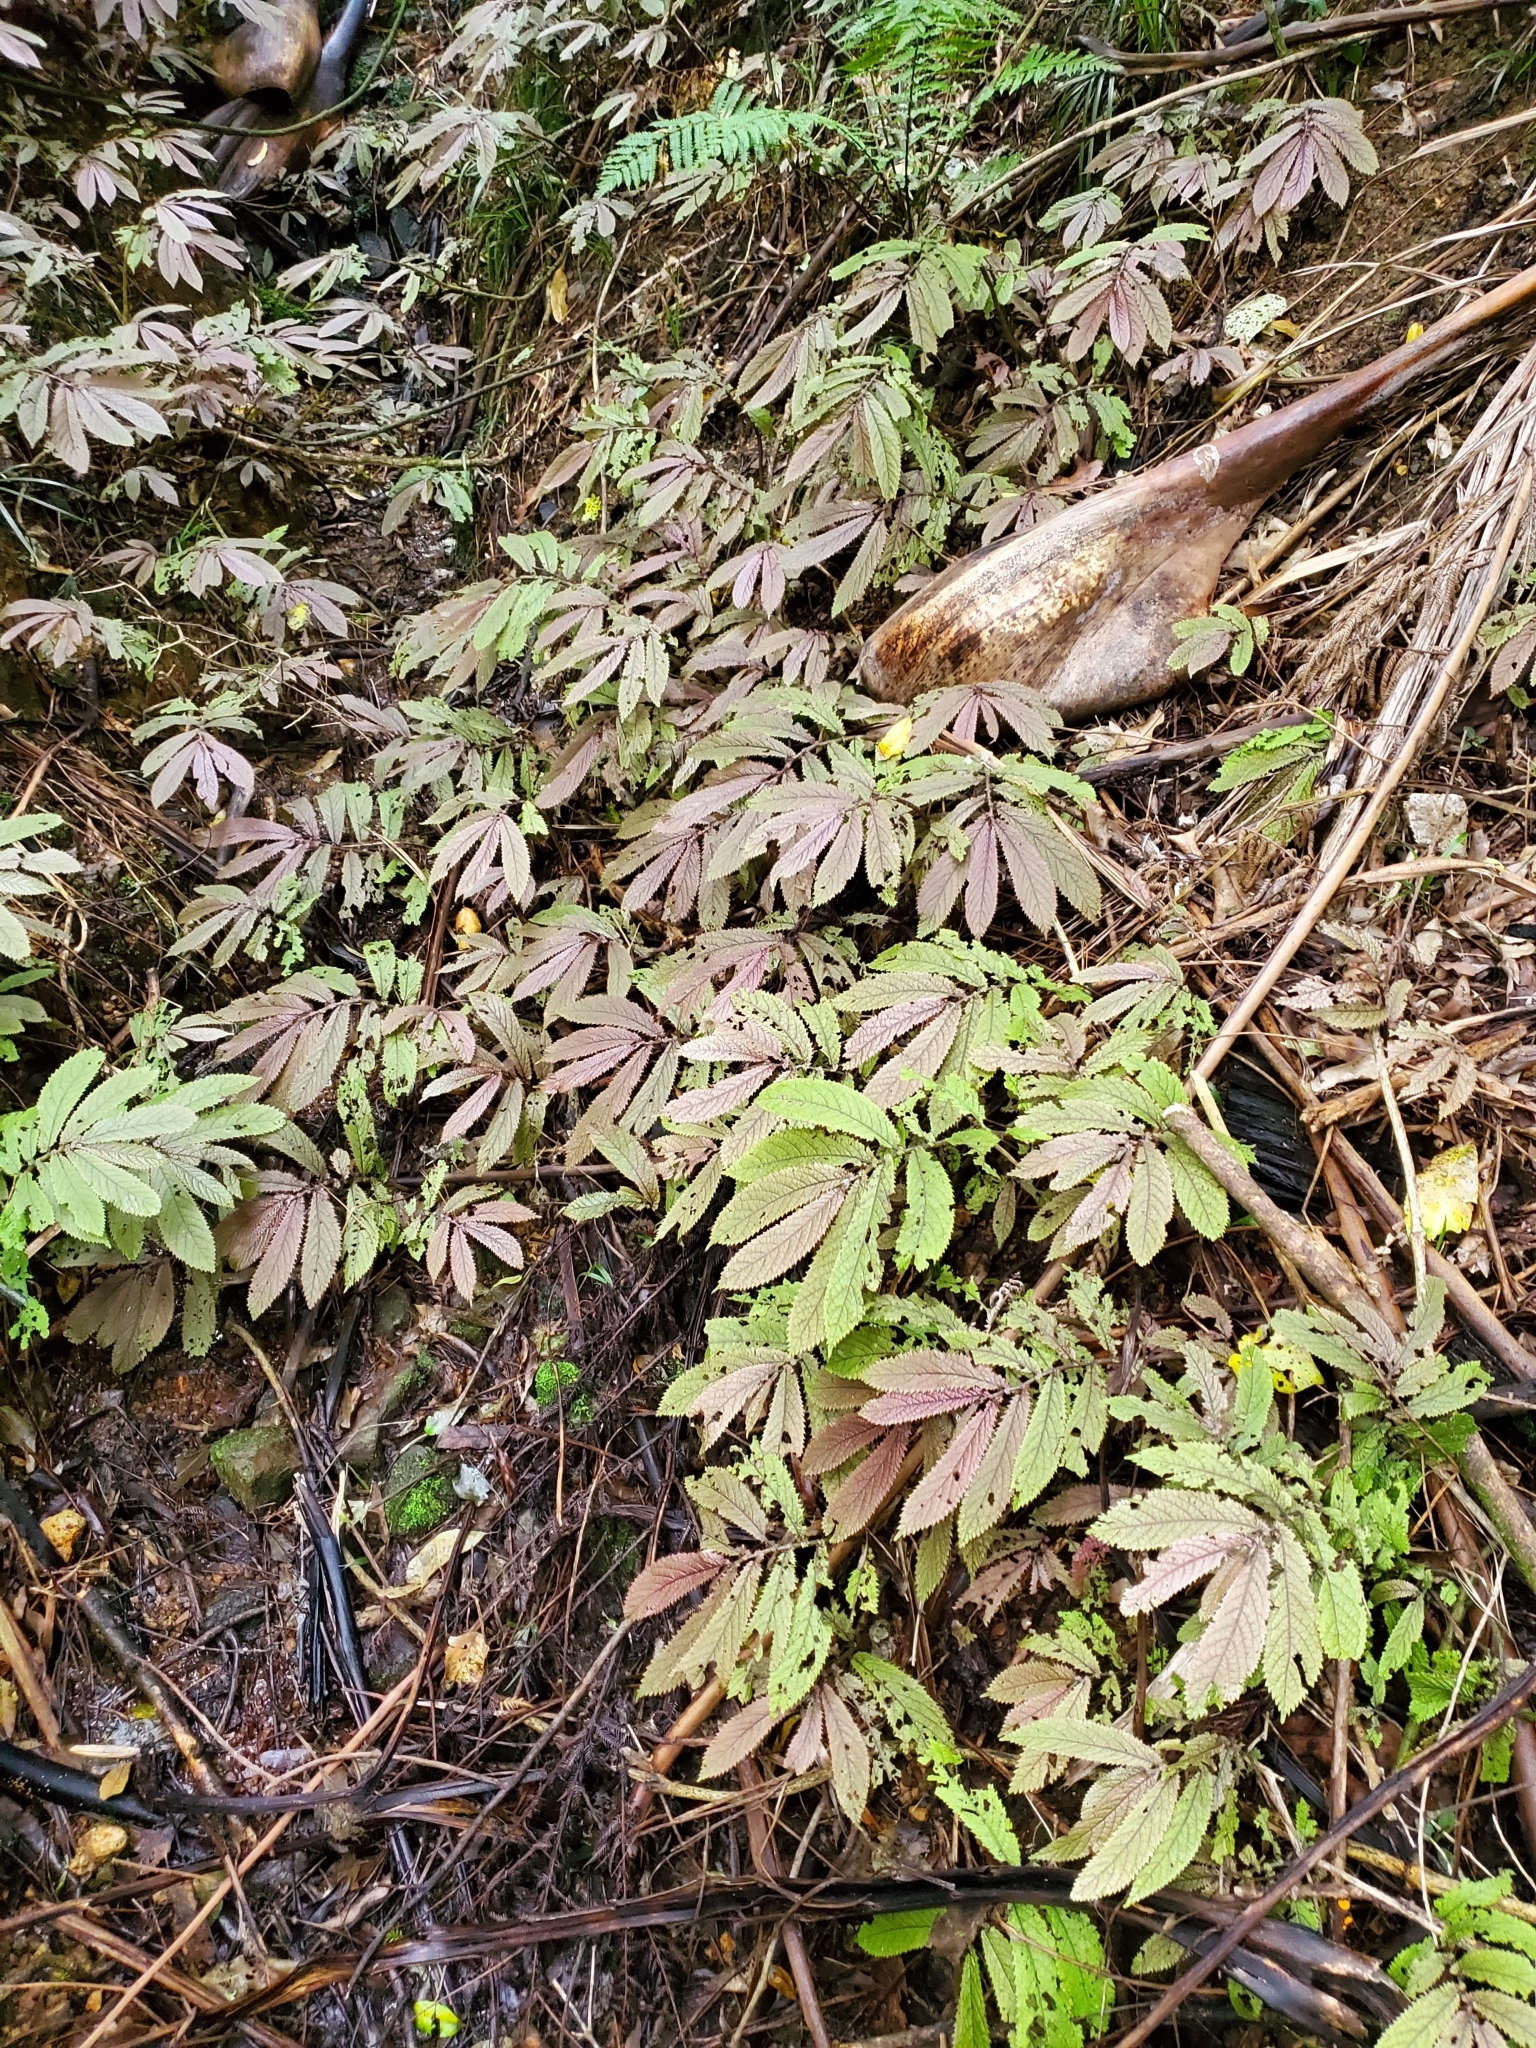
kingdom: Plantae
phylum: Tracheophyta
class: Magnoliopsida
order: Rosales
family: Urticaceae
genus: Elatostema
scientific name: Elatostema rugosum
